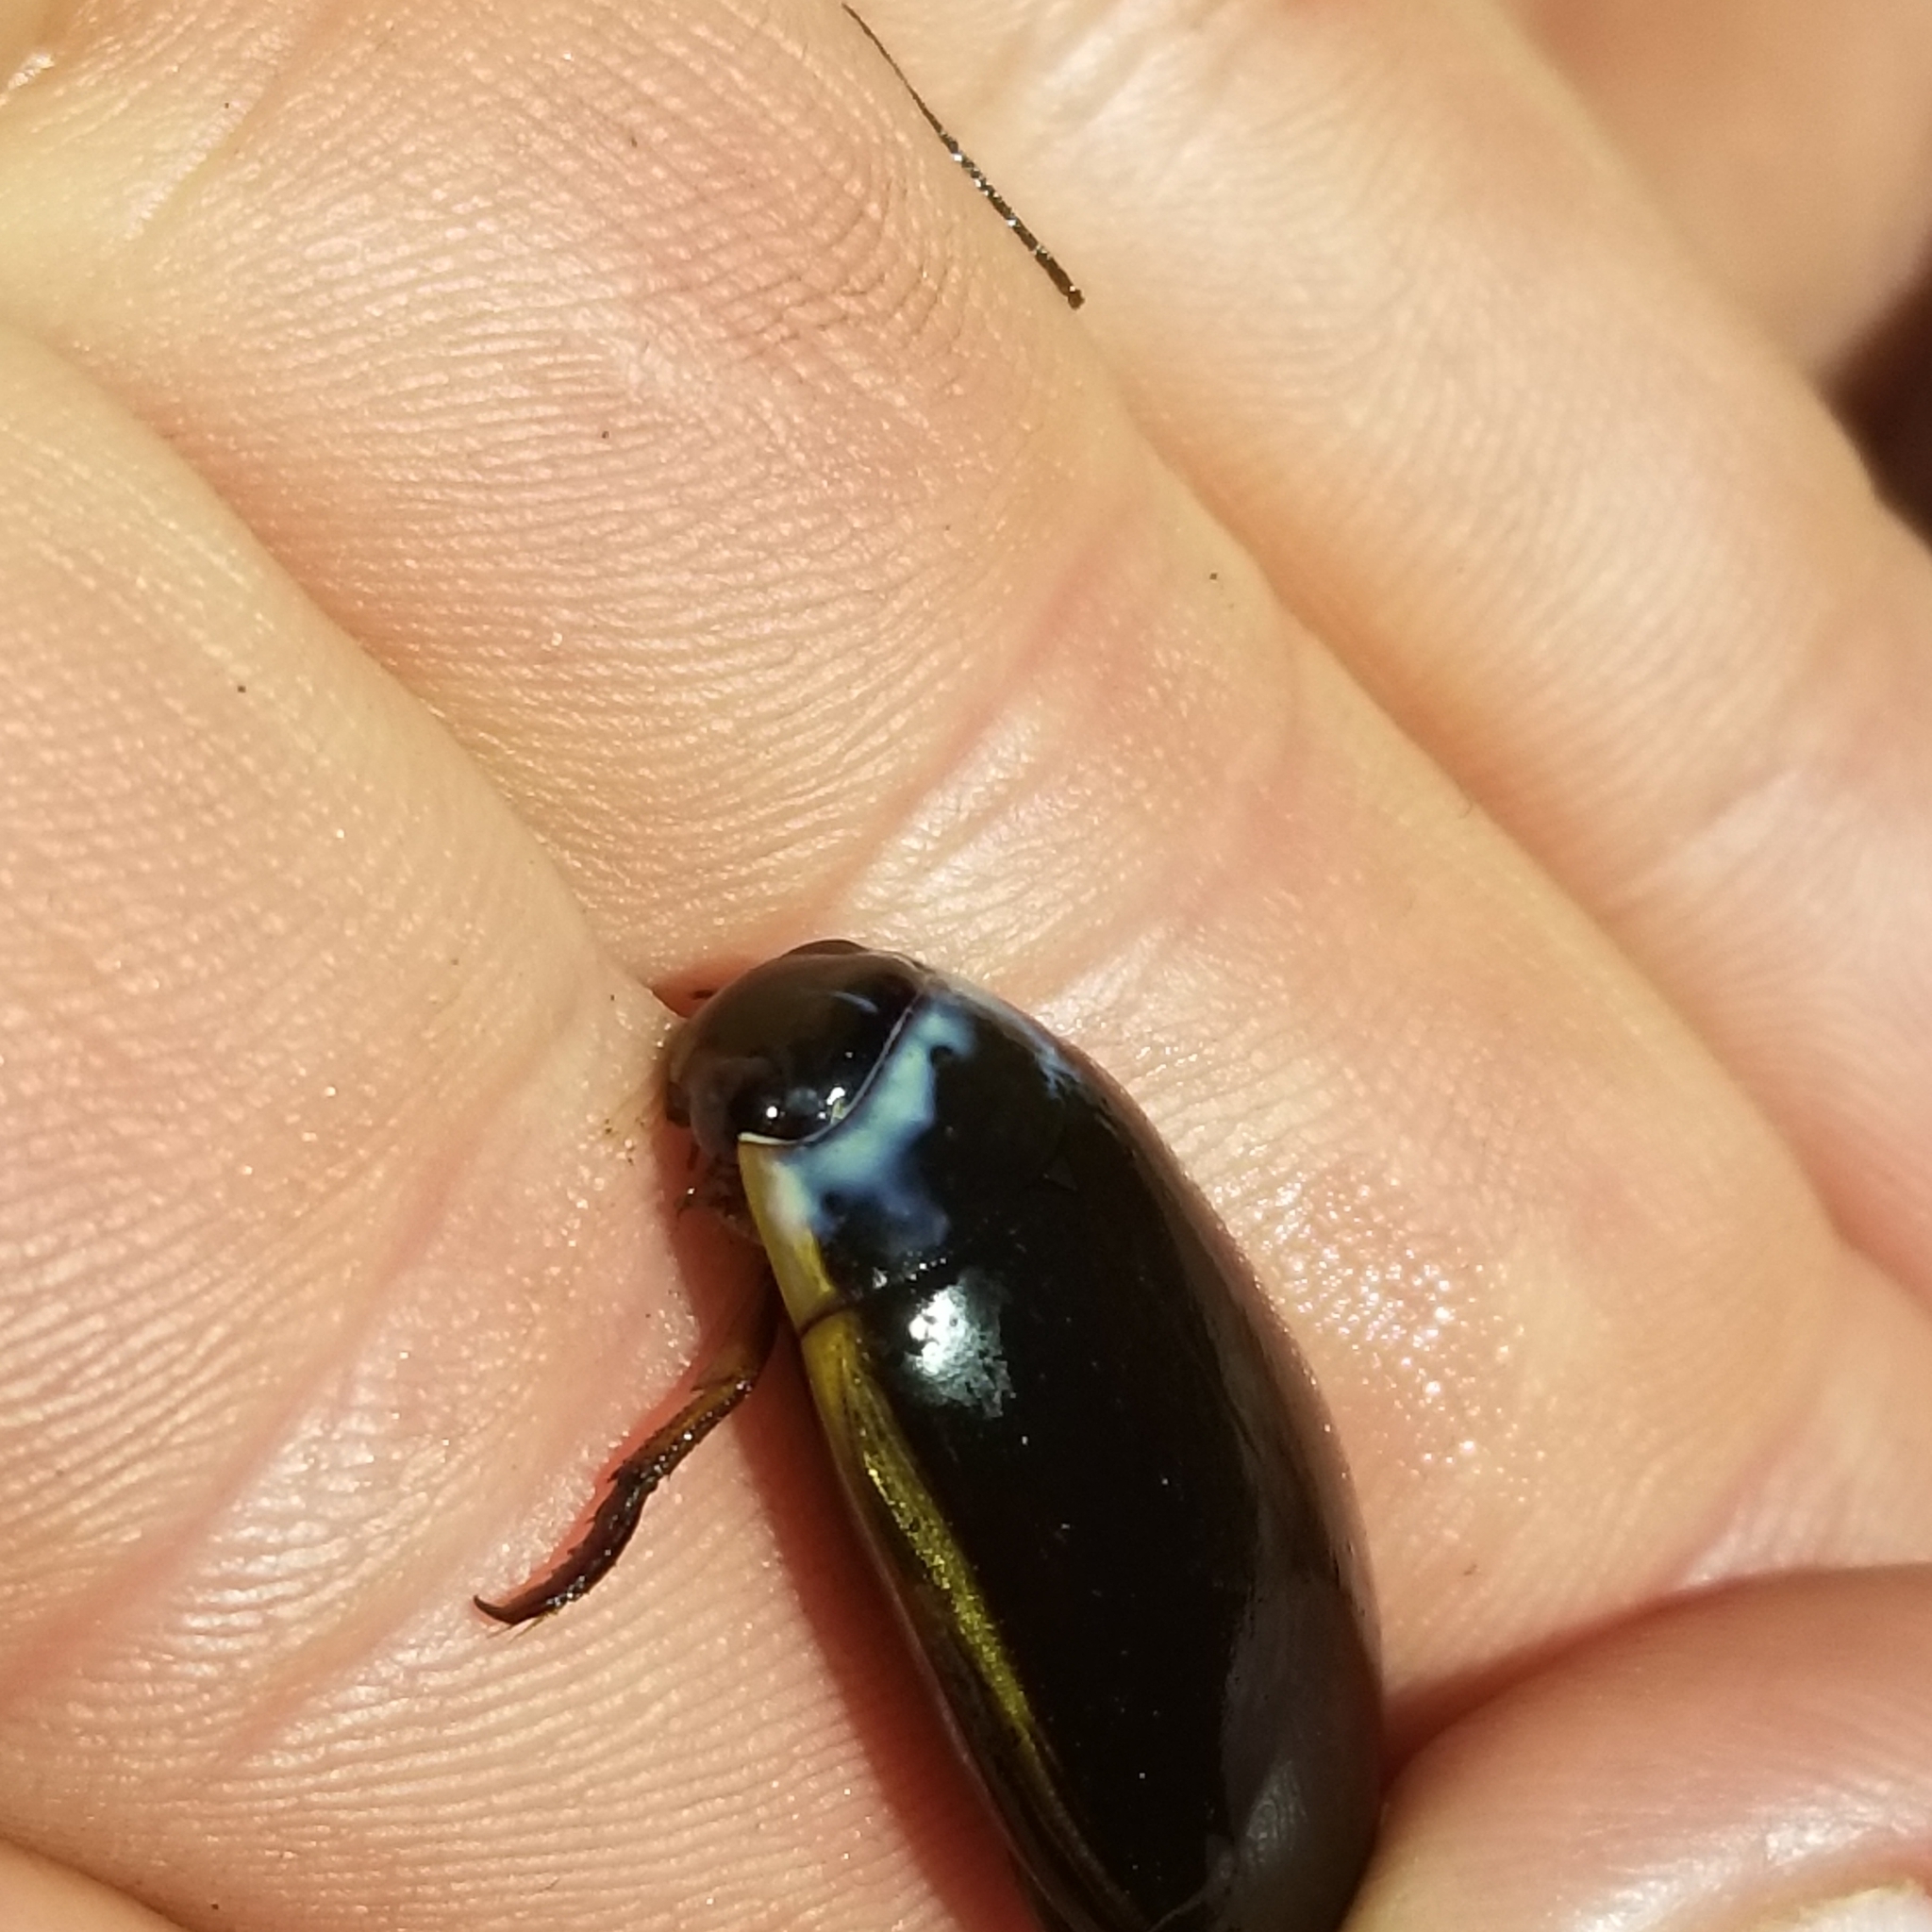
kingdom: Animalia
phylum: Arthropoda
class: Insecta
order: Coleoptera
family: Dytiscidae
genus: Cybister
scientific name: Cybister fimbriolatus
